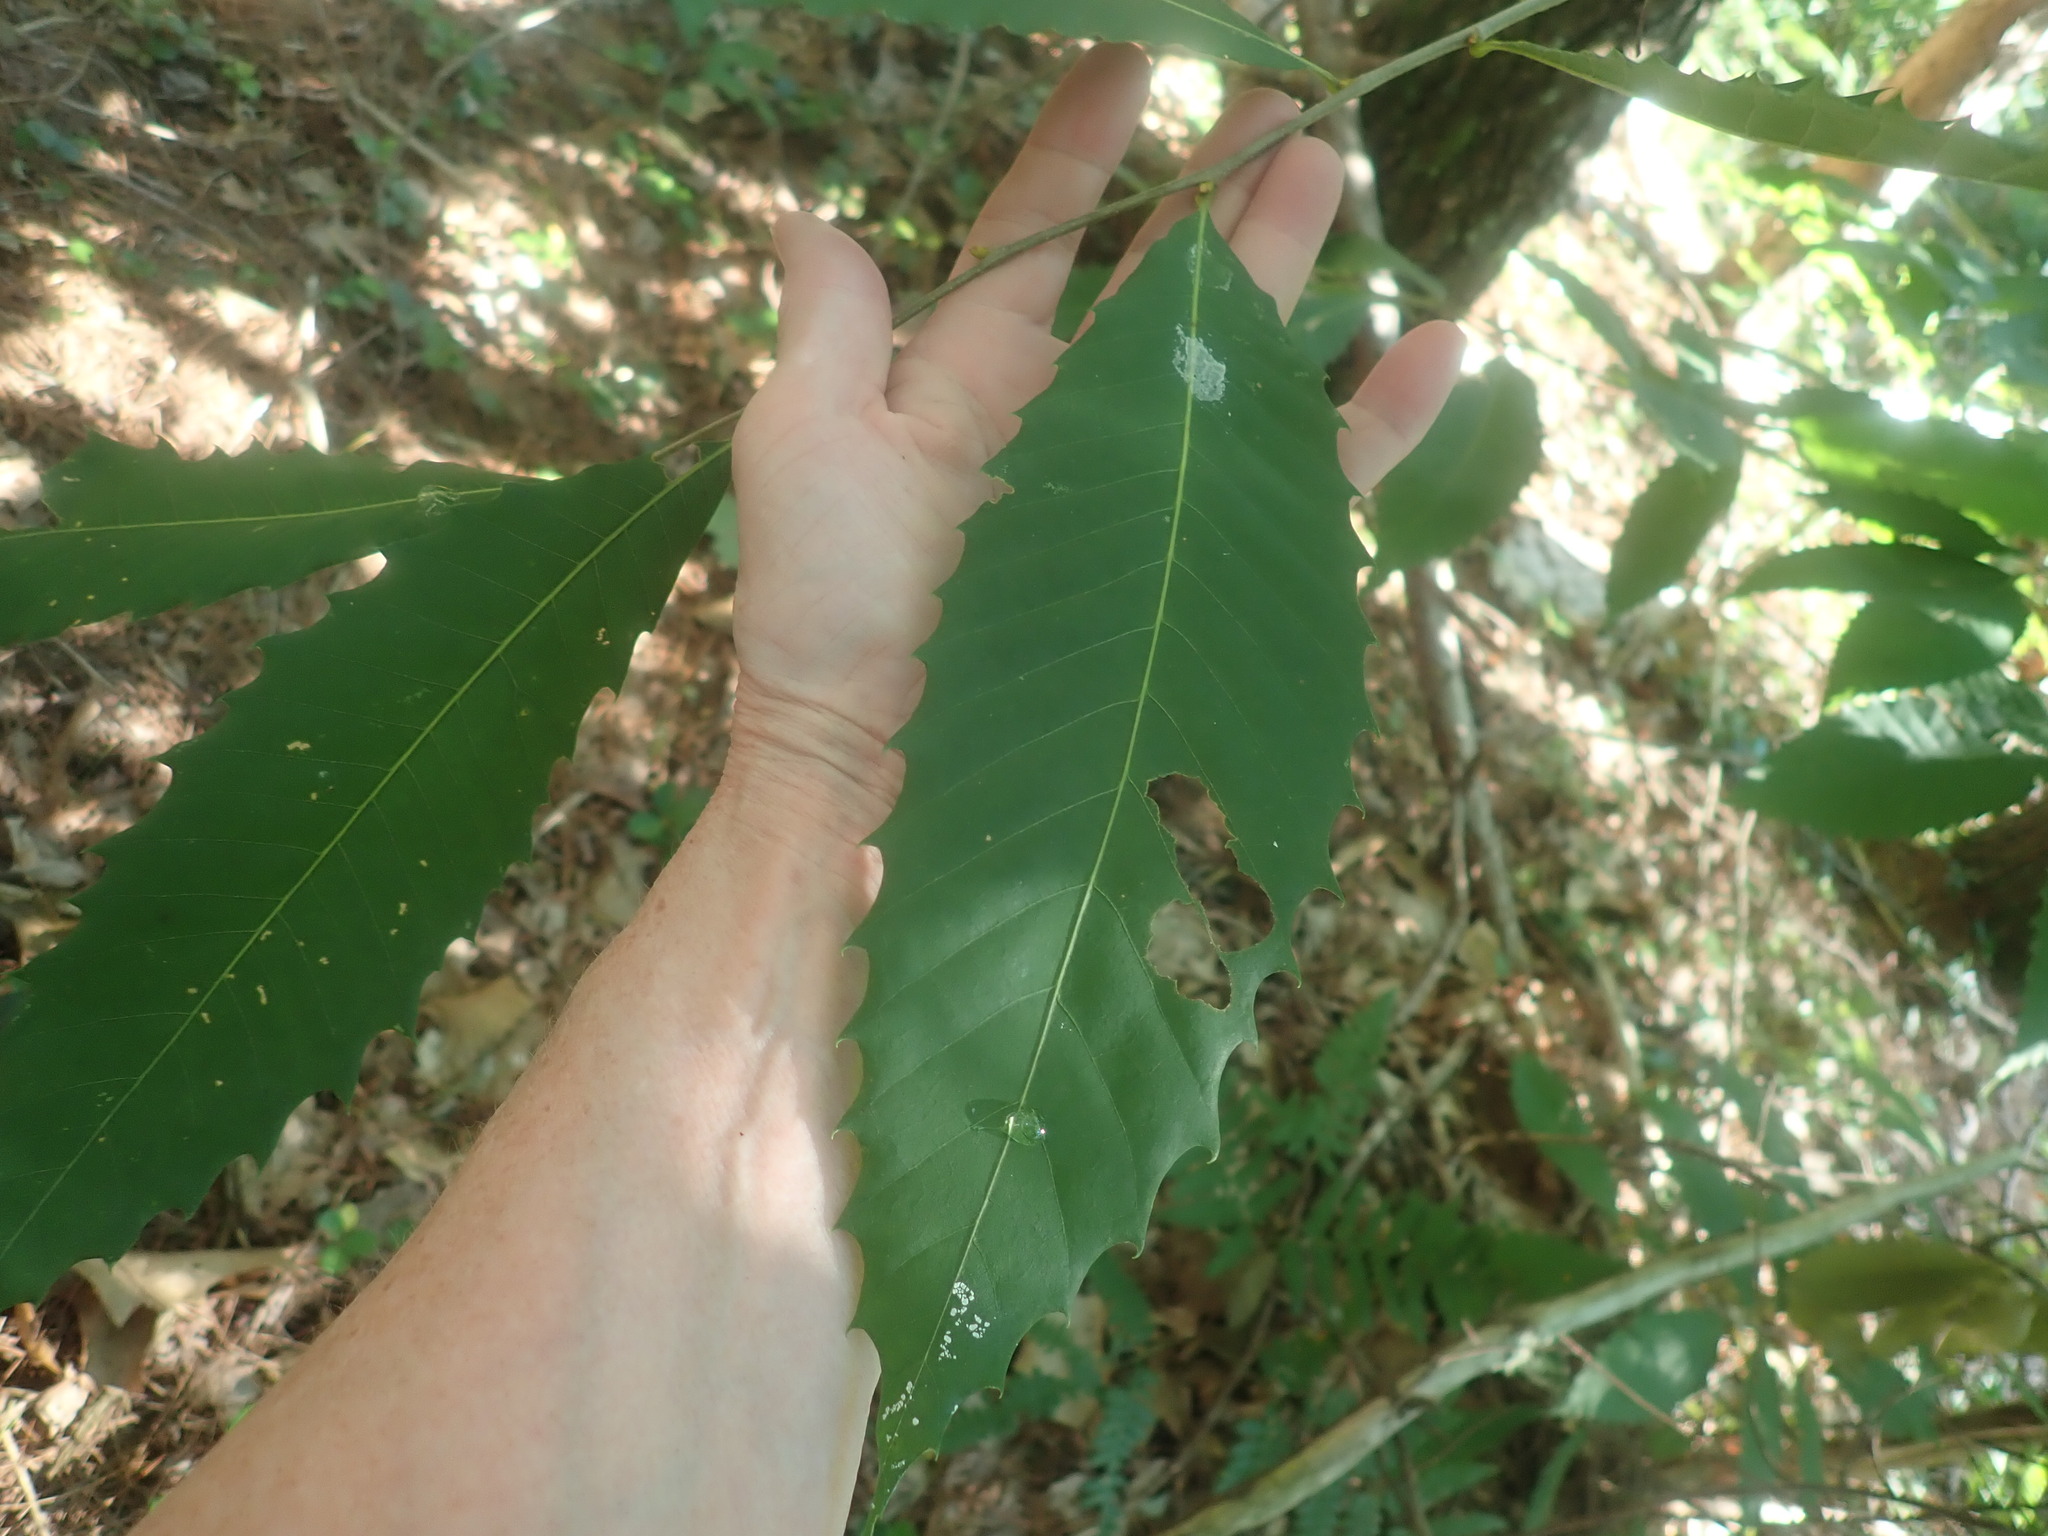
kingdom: Plantae
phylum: Tracheophyta
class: Magnoliopsida
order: Fagales
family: Fagaceae
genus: Castanea
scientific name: Castanea dentata
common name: American chestnut
